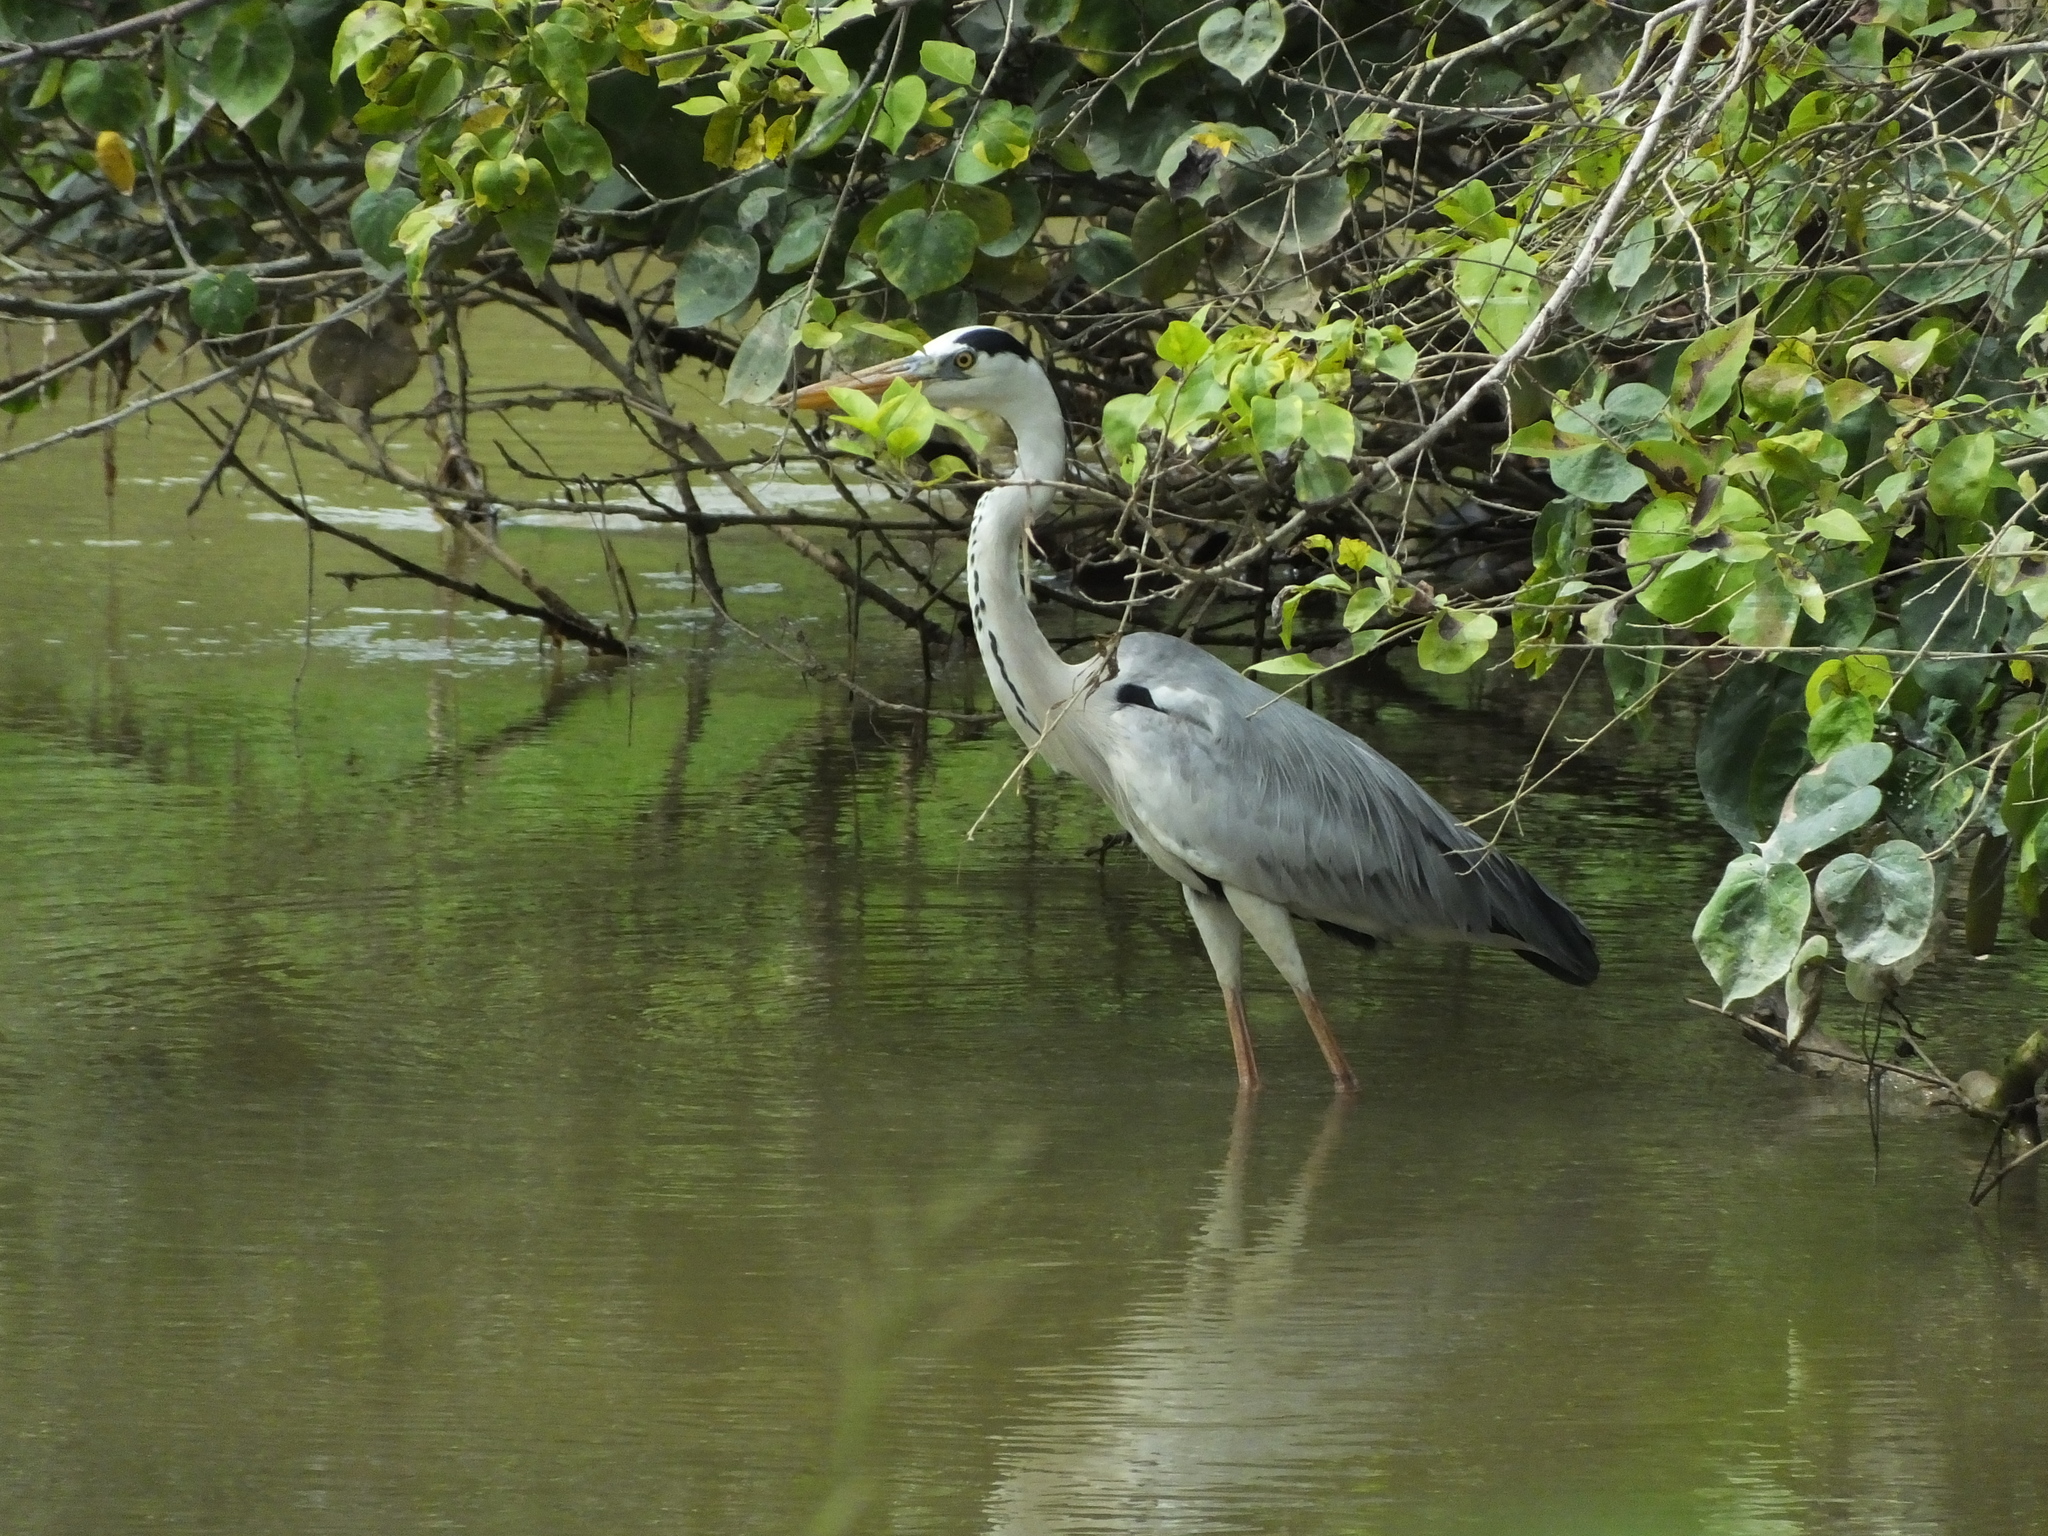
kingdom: Animalia
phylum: Chordata
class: Aves
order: Pelecaniformes
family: Ardeidae
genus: Ardea
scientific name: Ardea cinerea
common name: Grey heron
